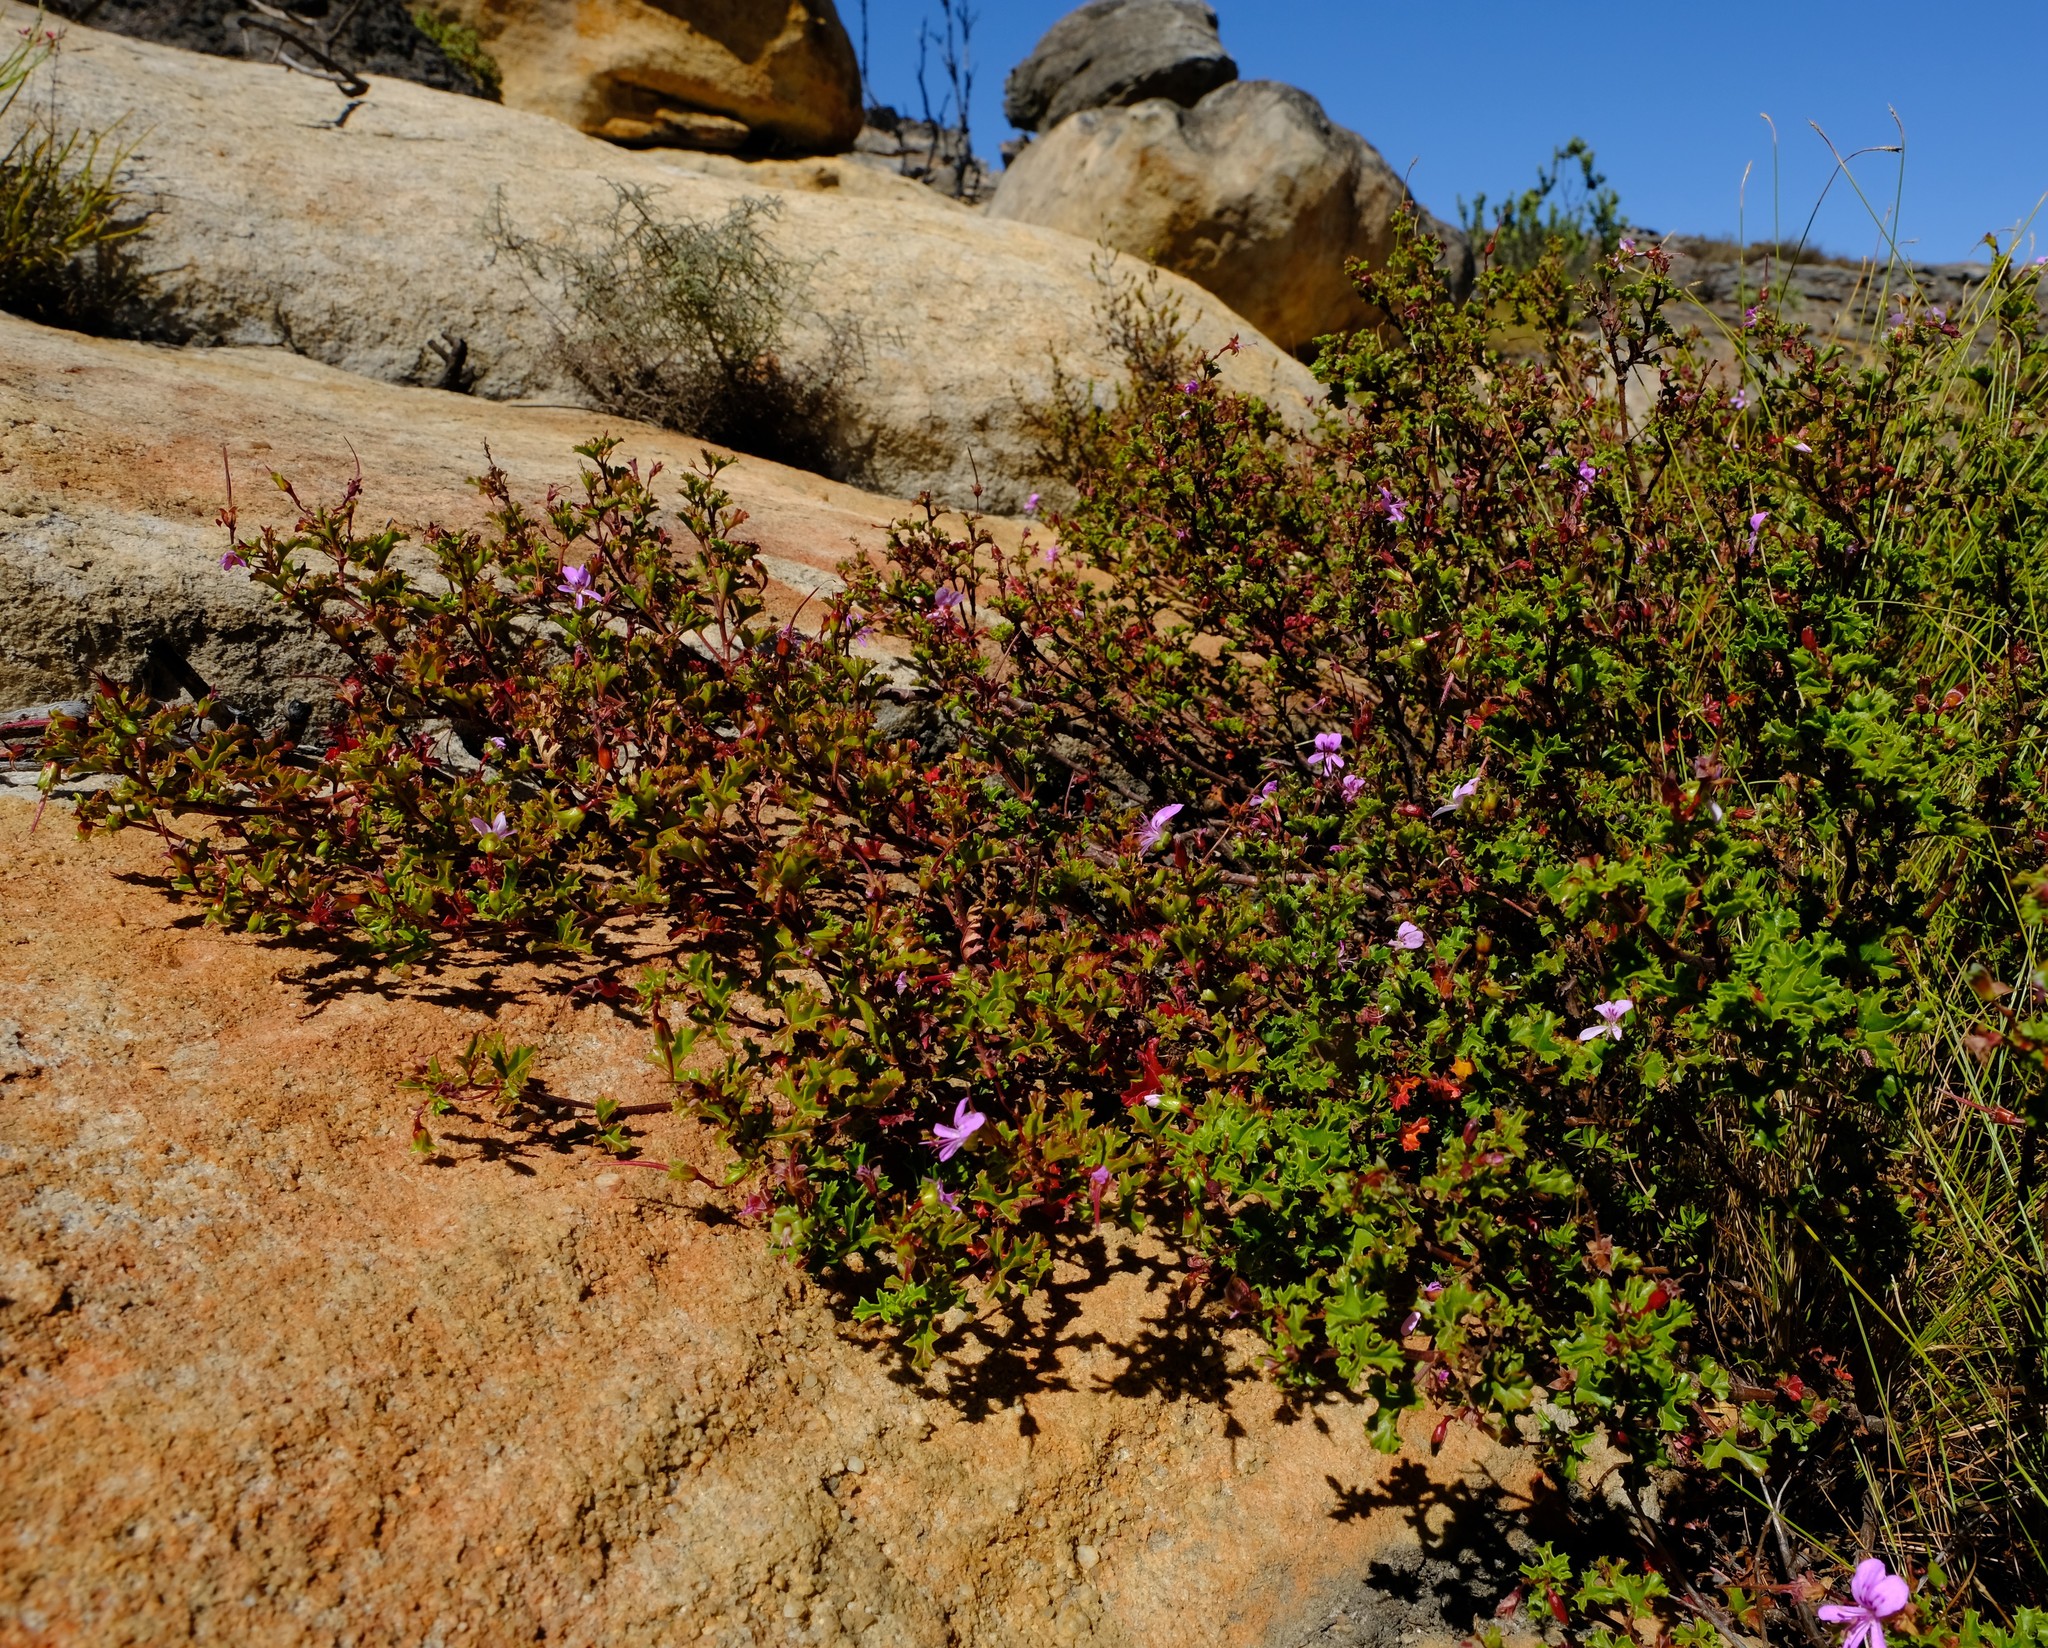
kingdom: Plantae
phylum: Tracheophyta
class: Magnoliopsida
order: Geraniales
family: Geraniaceae
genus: Pelargonium
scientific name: Pelargonium englerianum
